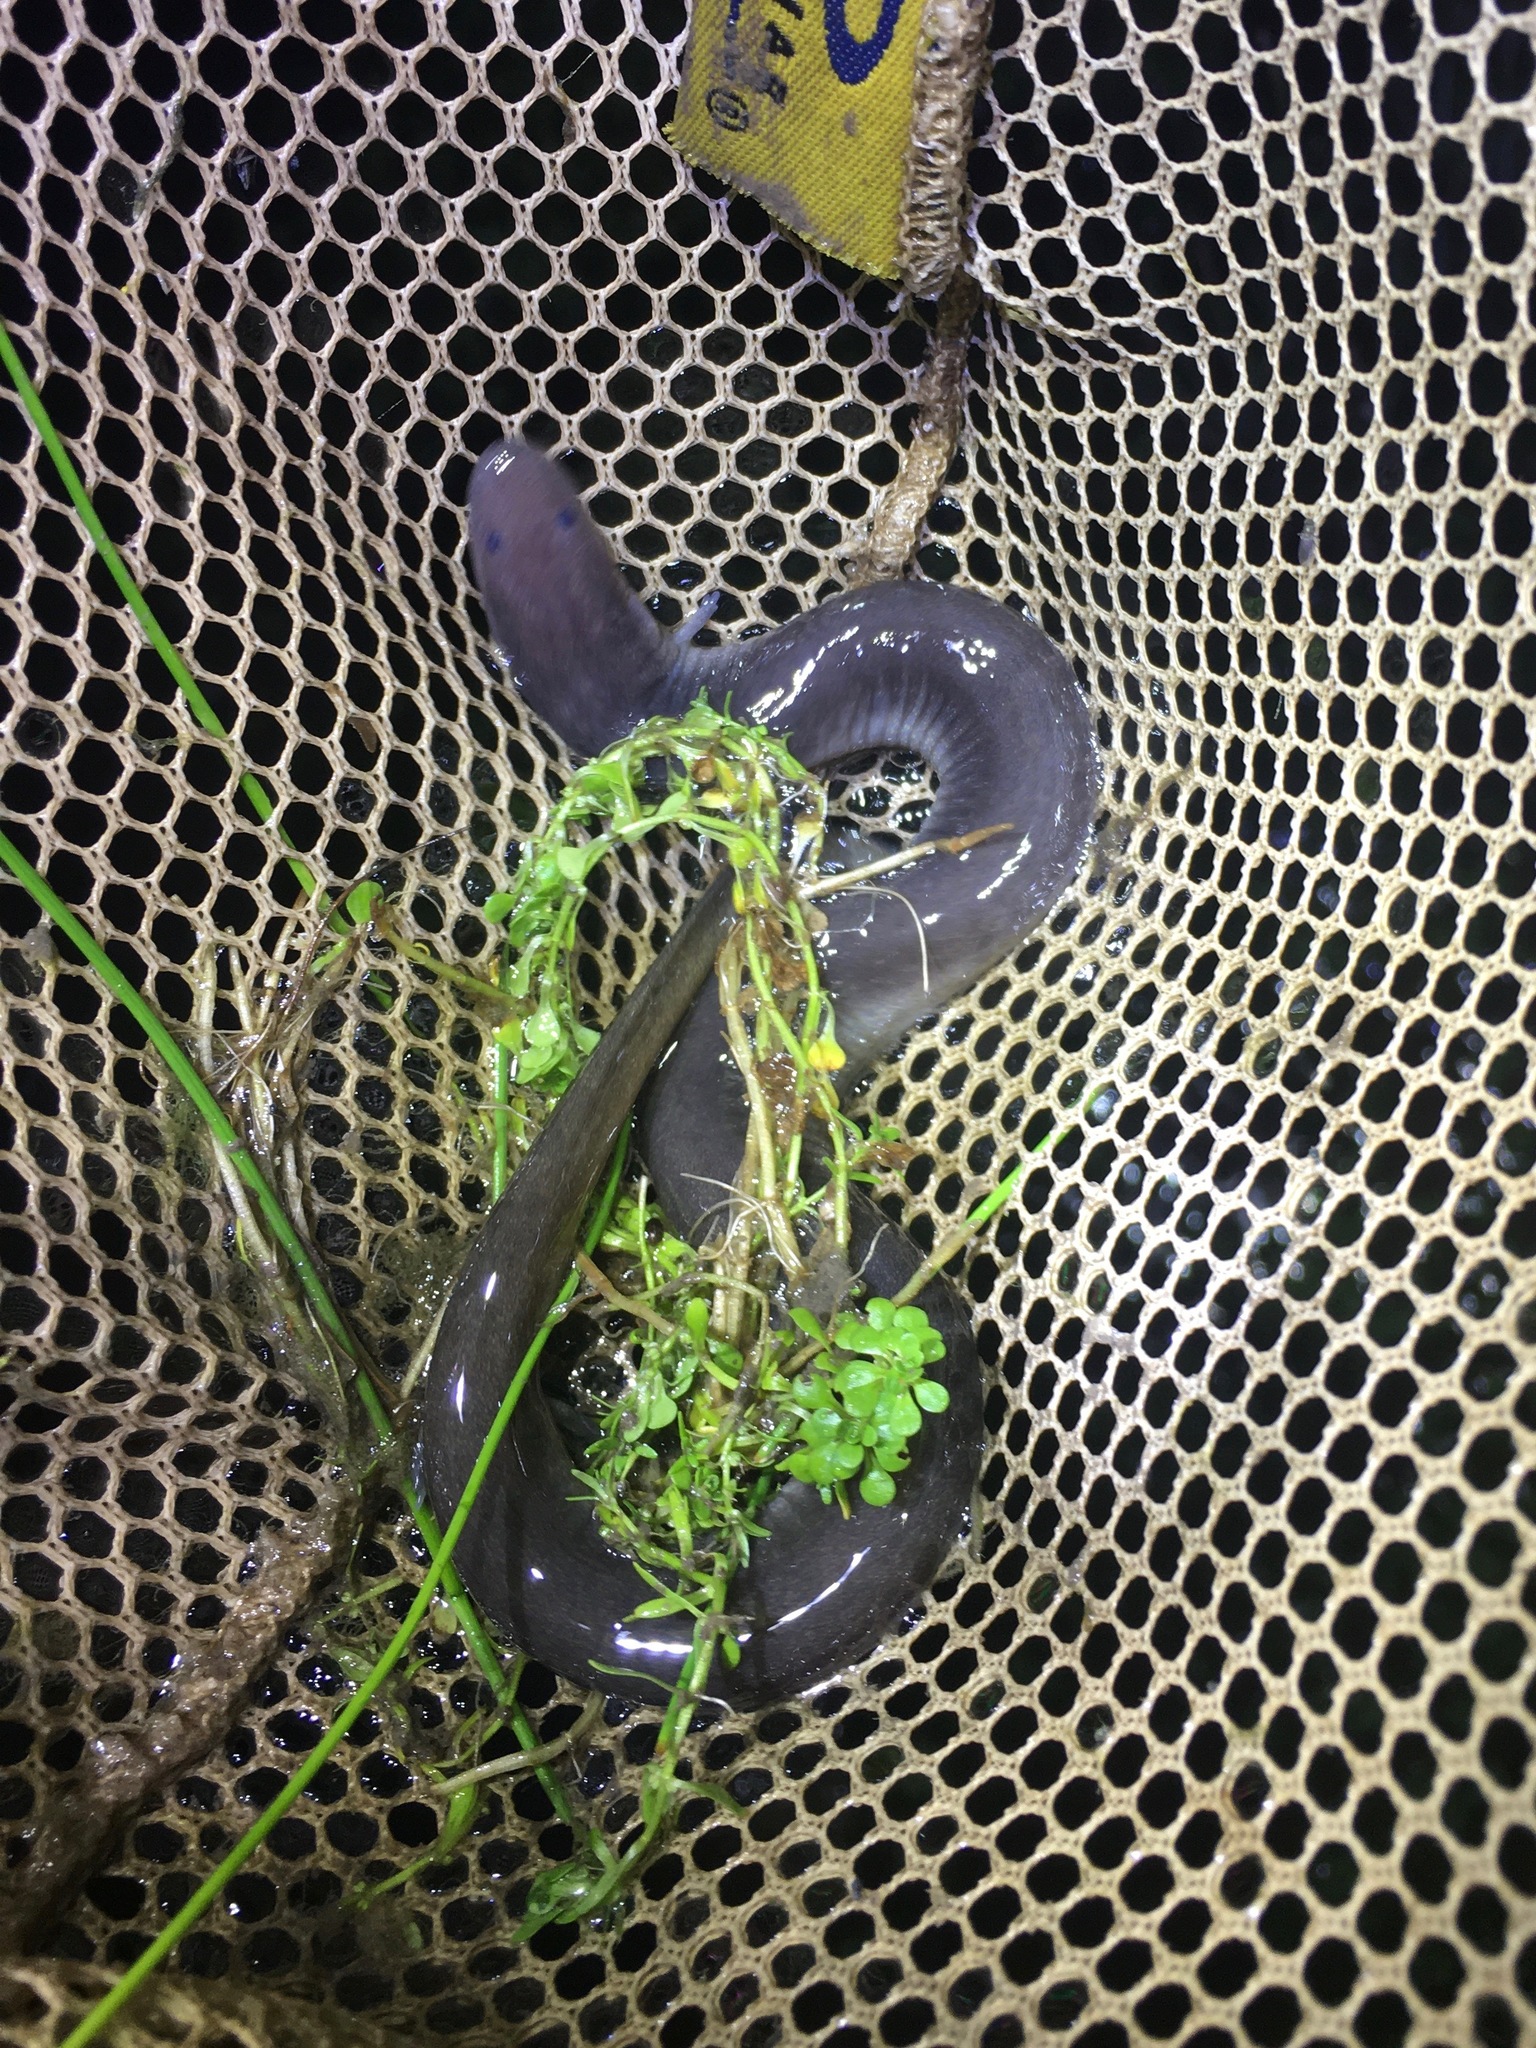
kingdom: Animalia
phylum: Chordata
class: Amphibia
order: Caudata
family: Amphiumidae
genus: Amphiuma
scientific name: Amphiuma tridactylum
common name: Three-toed amphiuma
